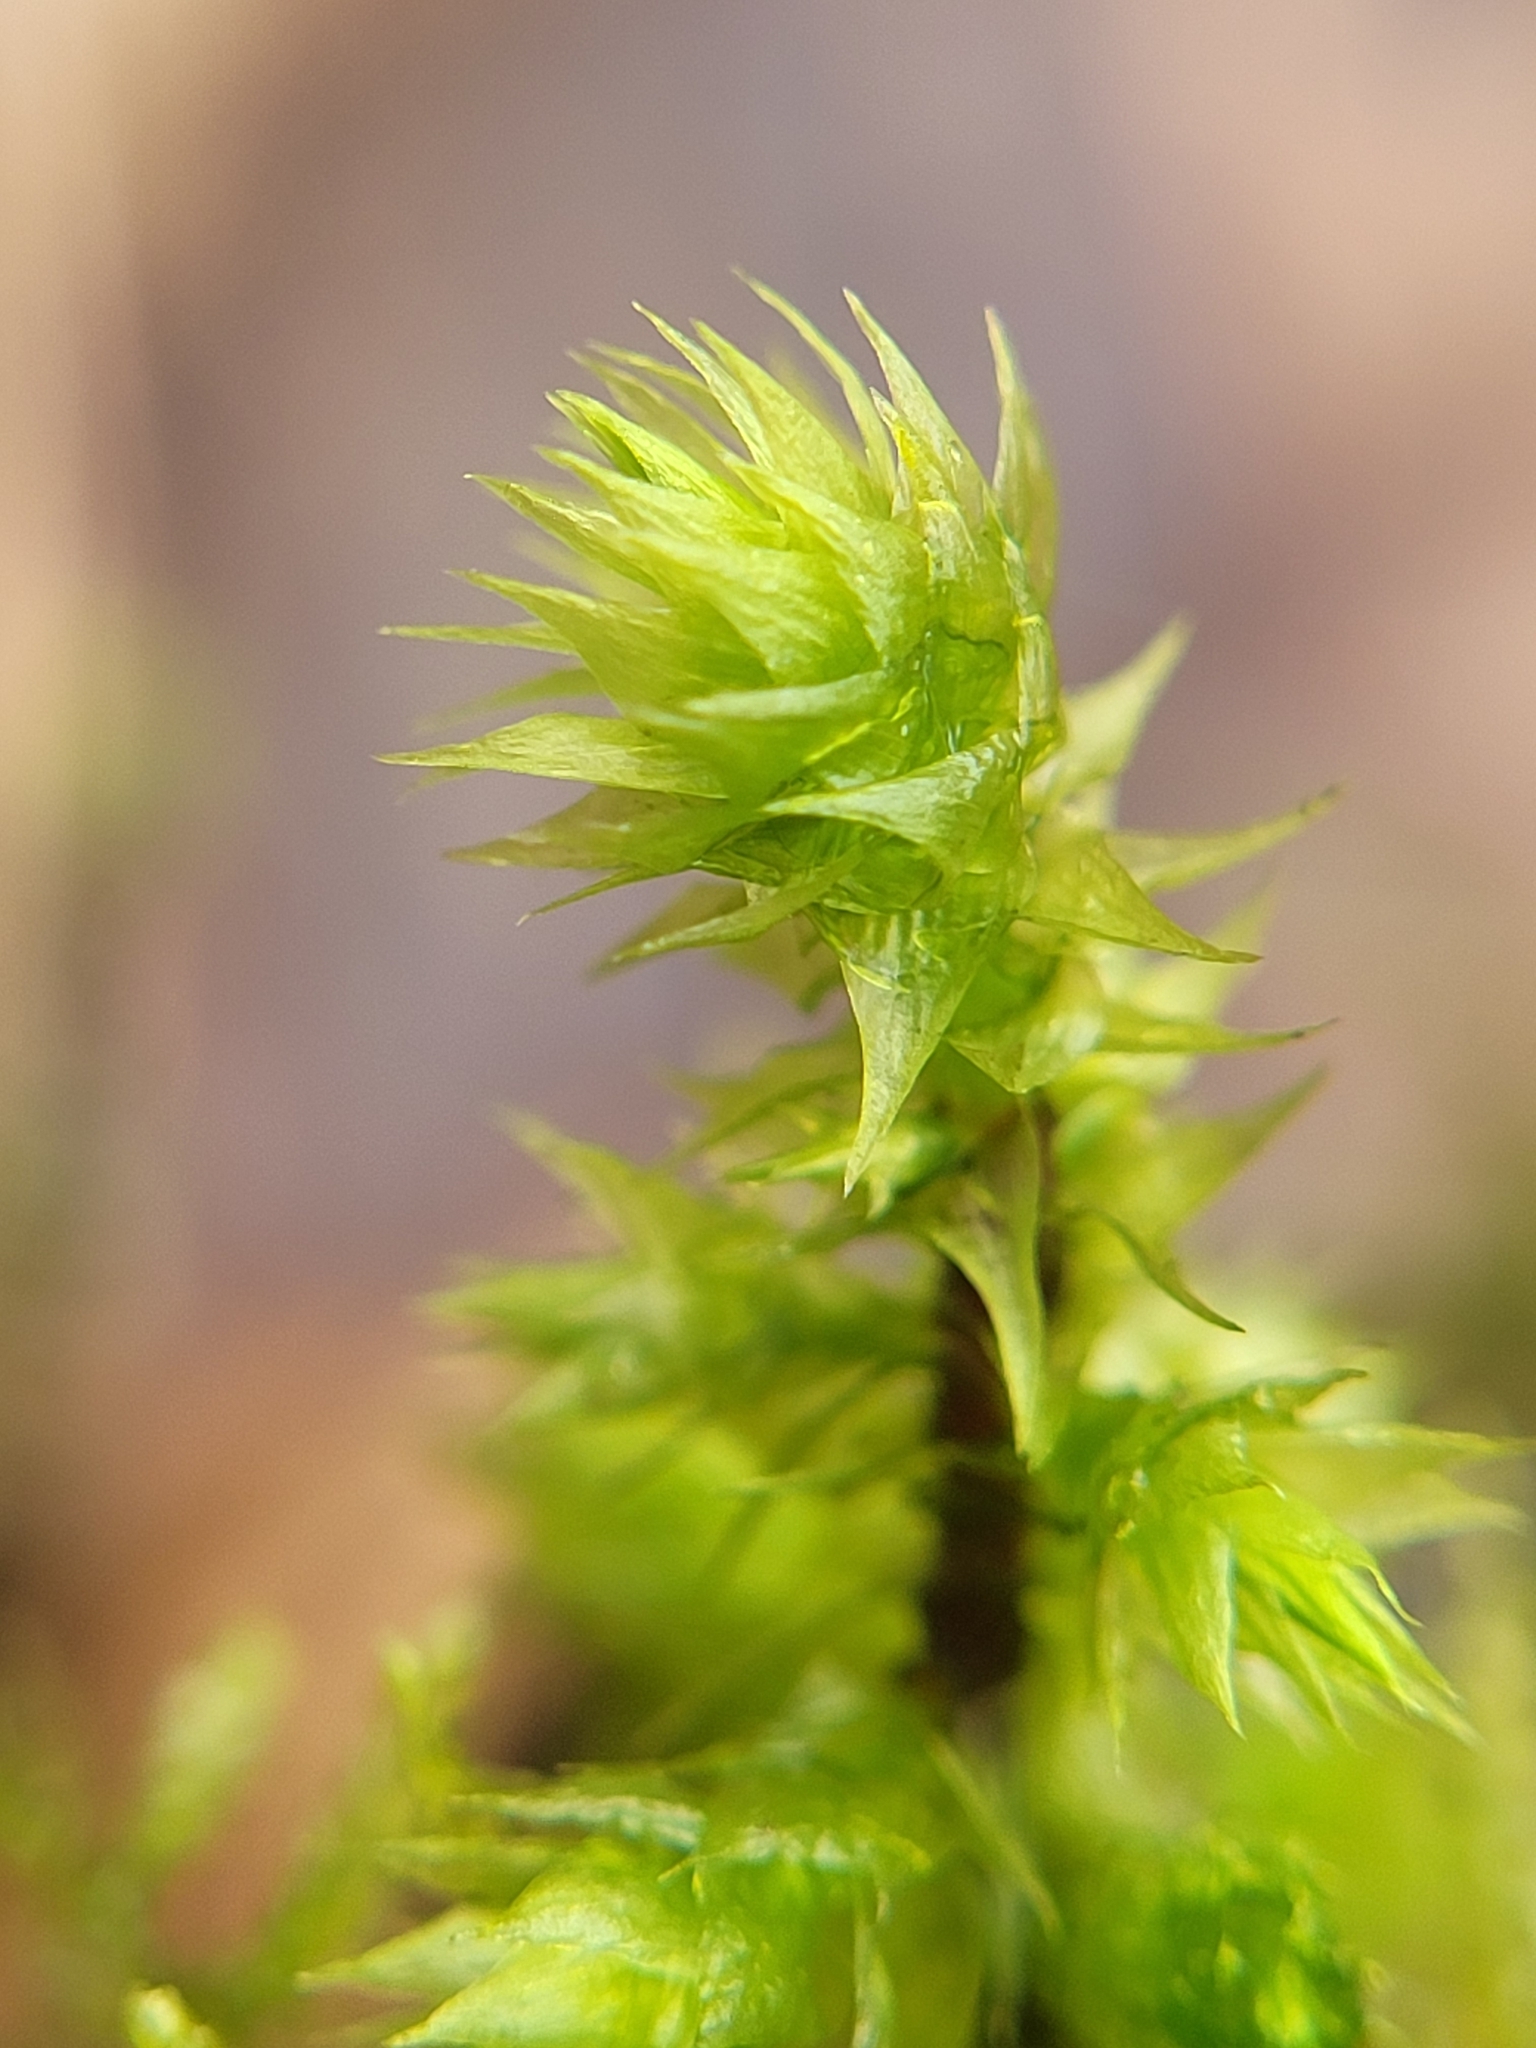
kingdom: Plantae
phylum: Bryophyta
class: Bryopsida
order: Hypnales
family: Hylocomiaceae
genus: Hylocomiadelphus
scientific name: Hylocomiadelphus triquetrus
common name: Rough goose neck moss
